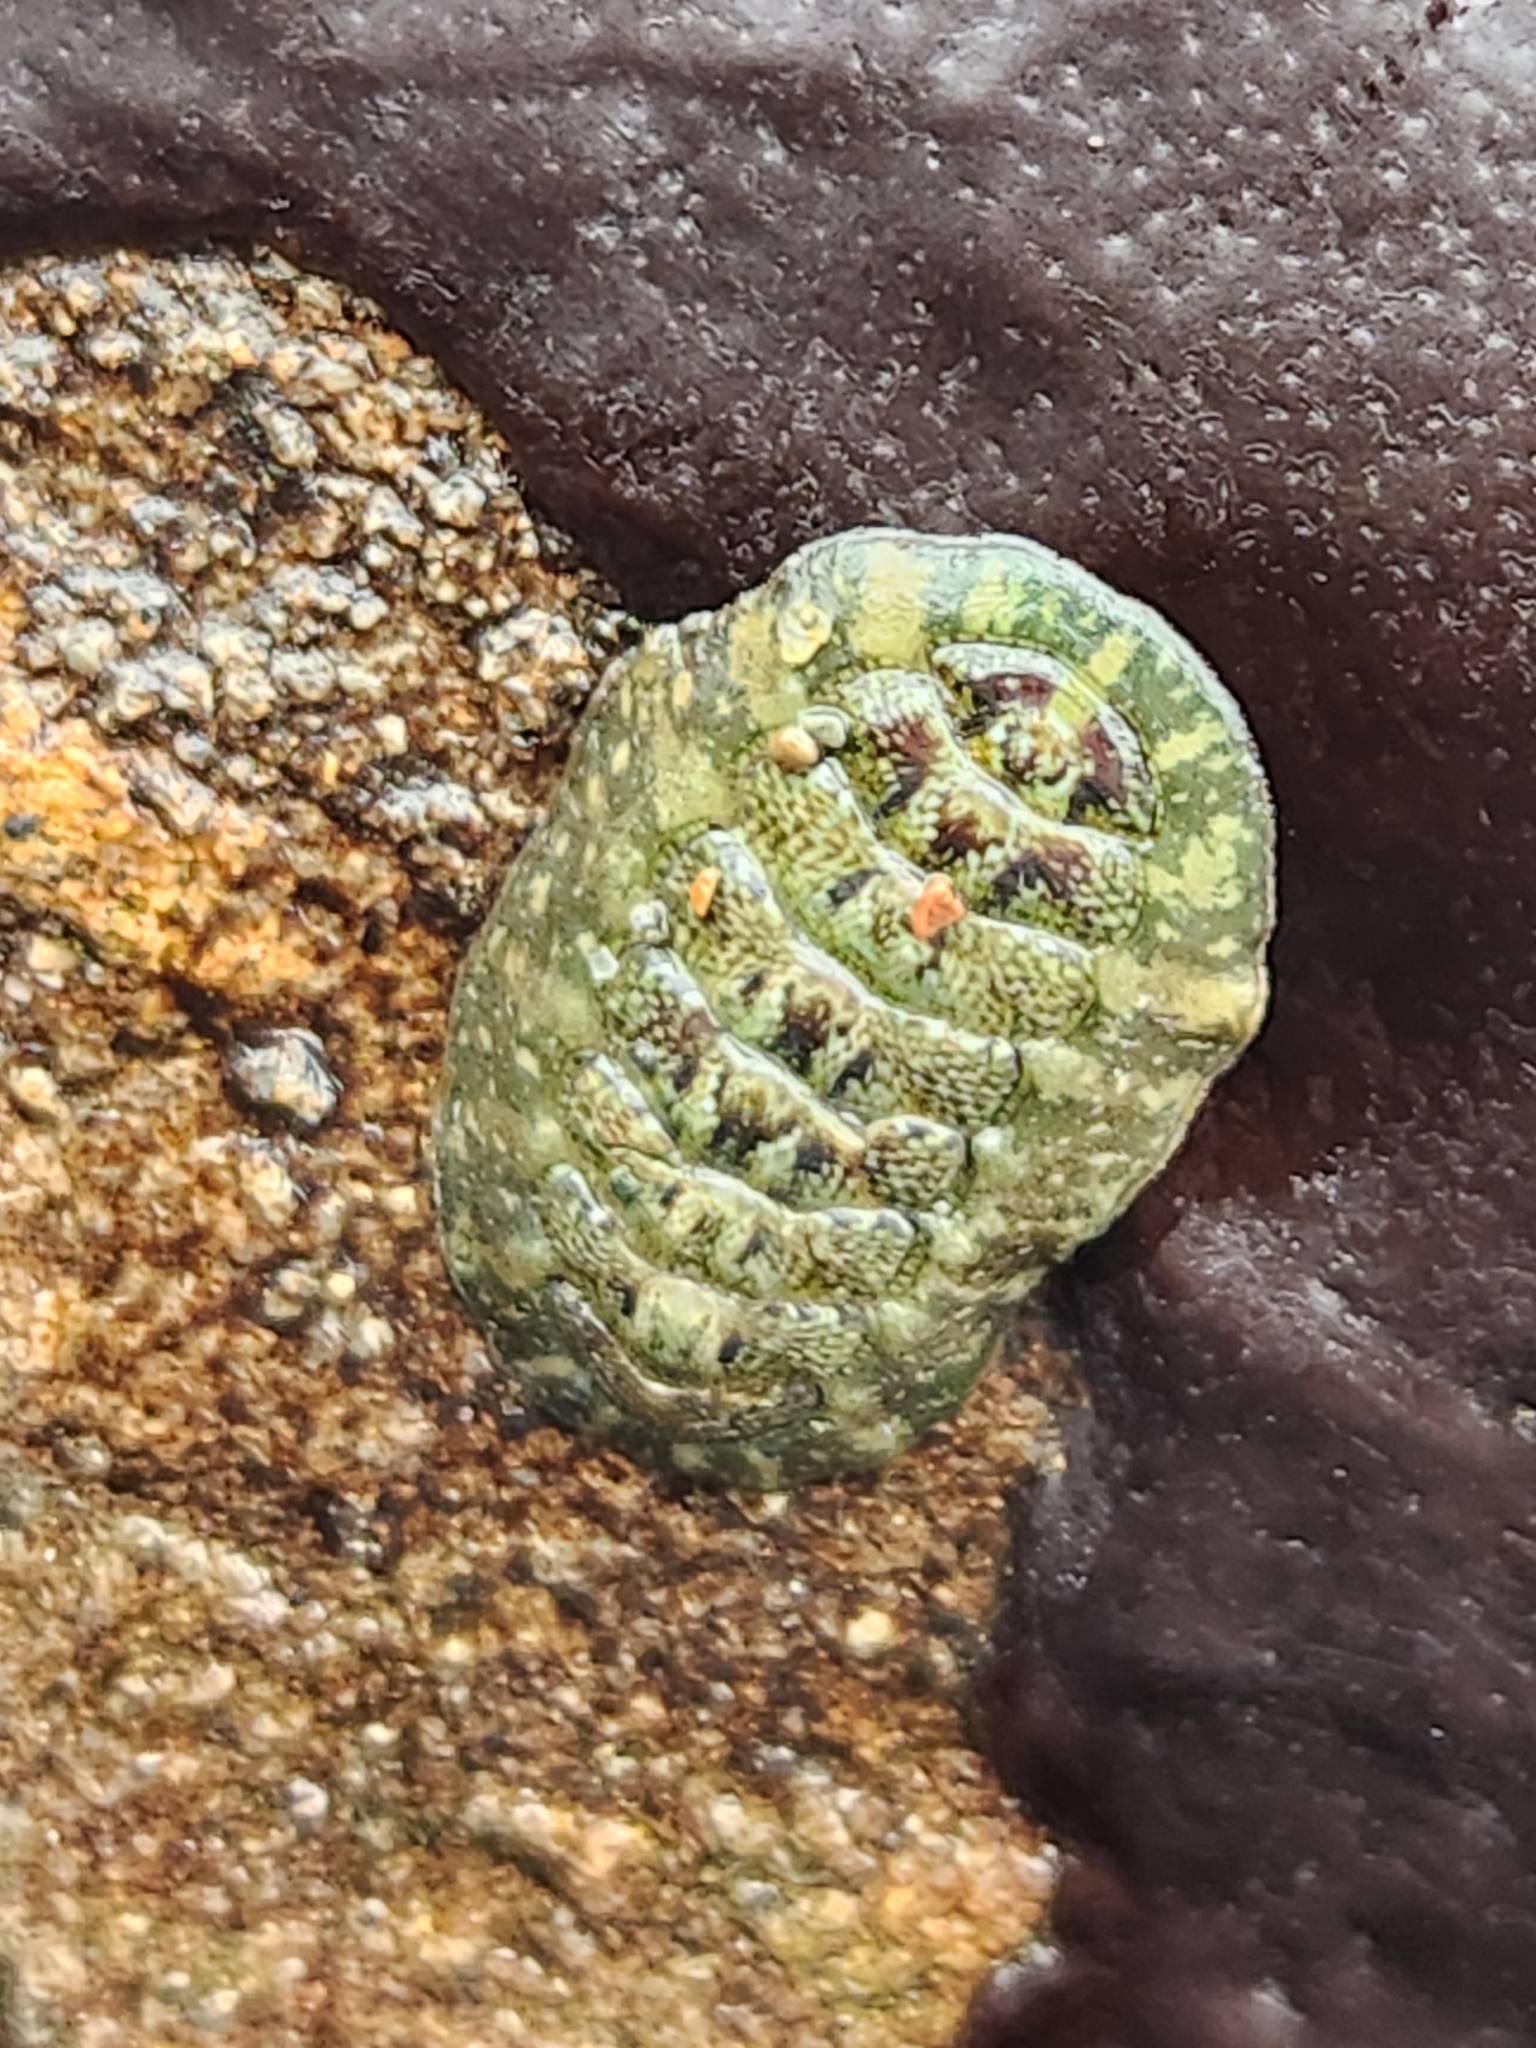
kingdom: Animalia
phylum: Mollusca
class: Polyplacophora
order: Chitonida
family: Tonicellidae
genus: Cyanoplax
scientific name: Cyanoplax dentiens
